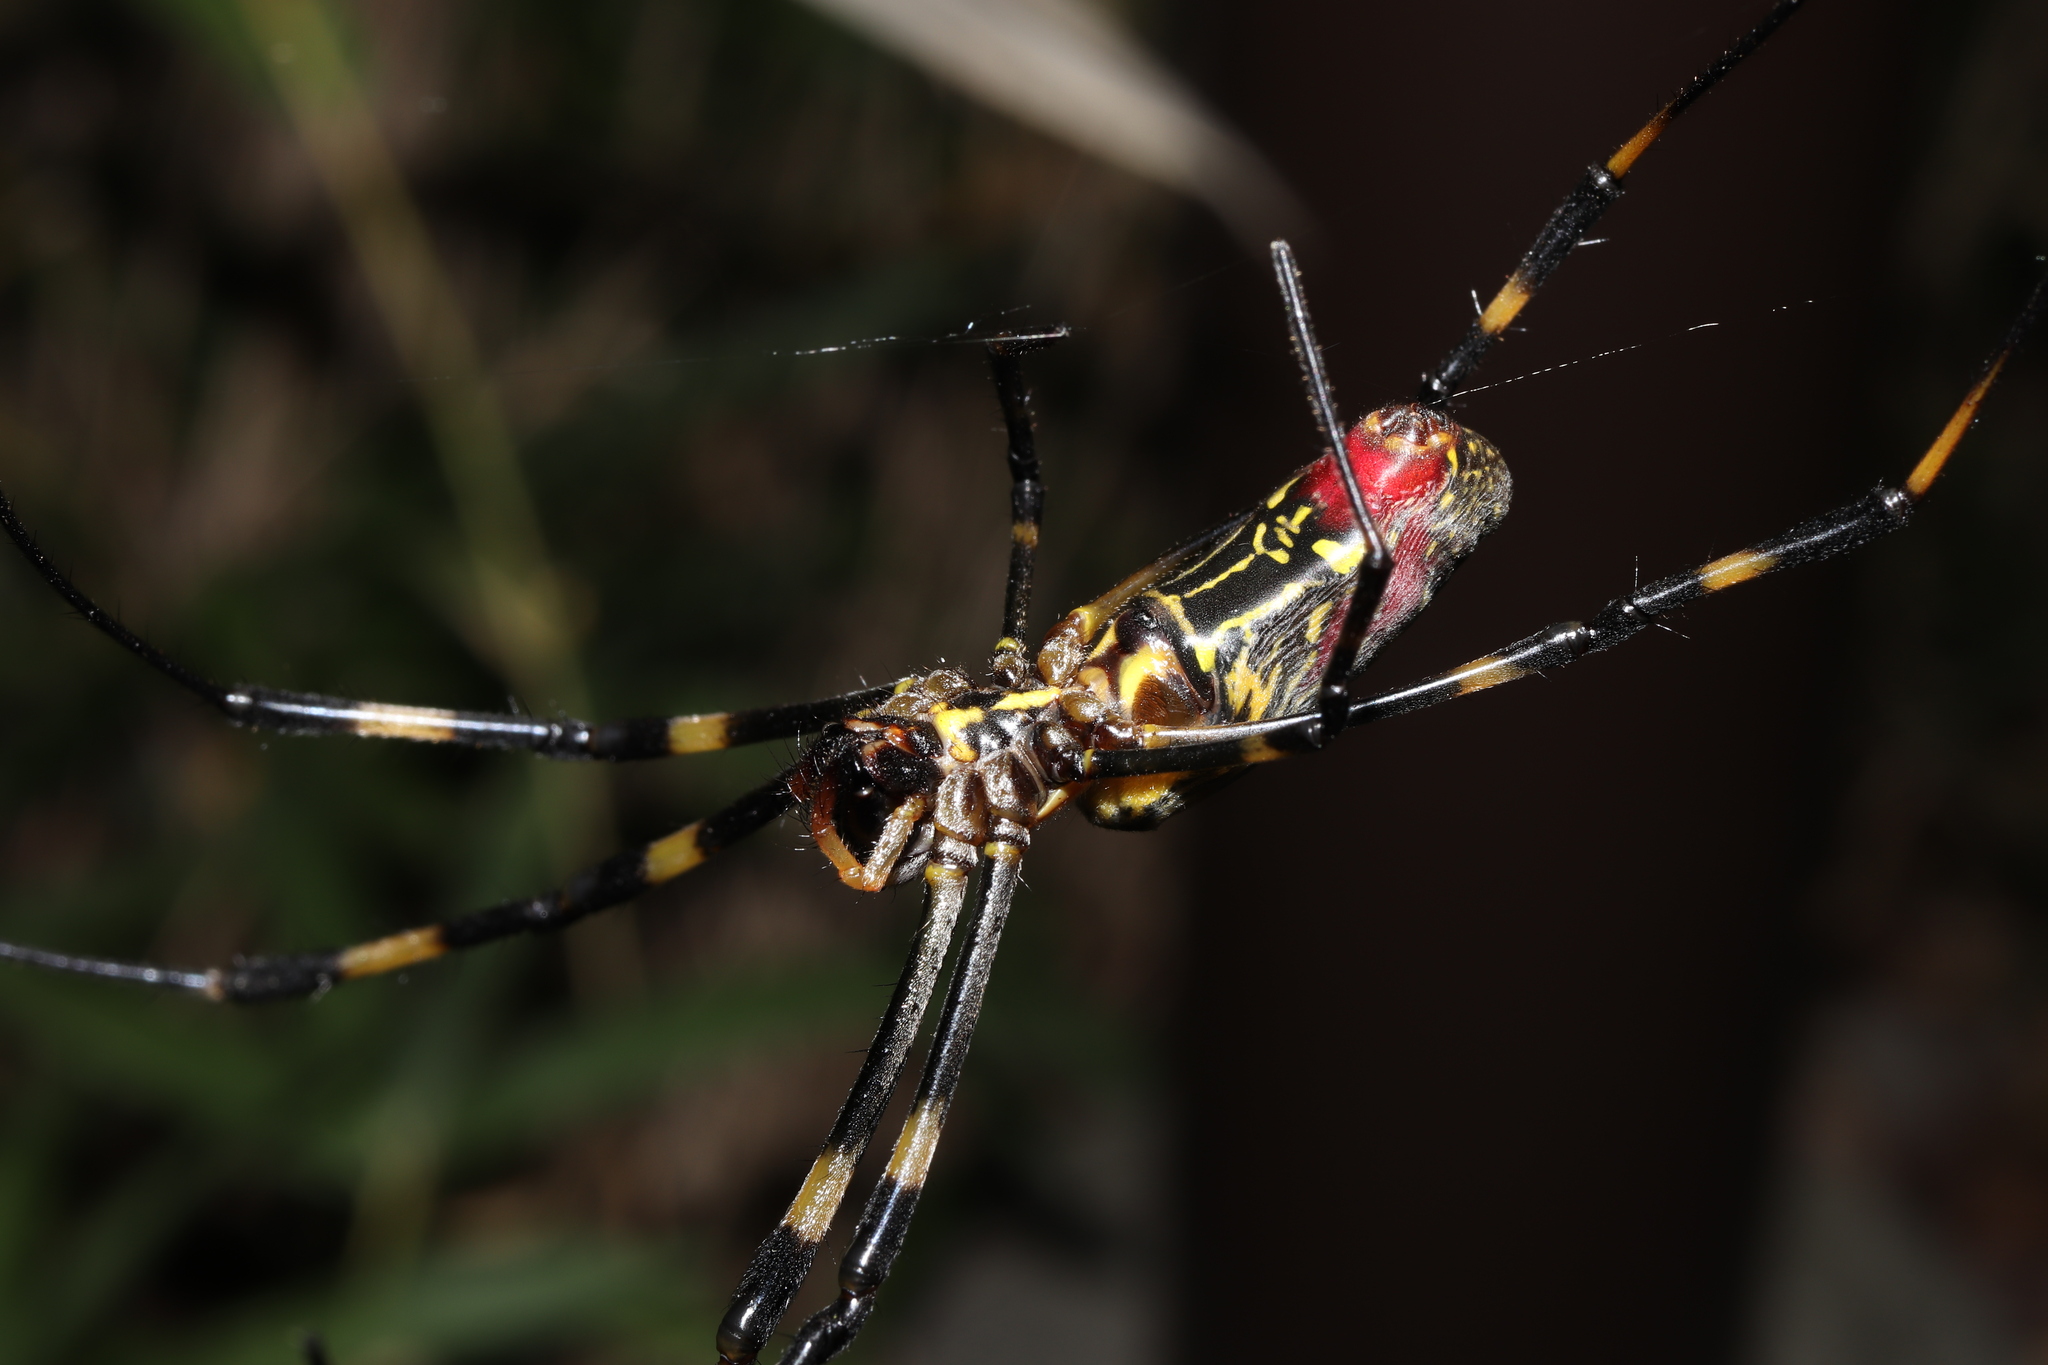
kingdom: Animalia
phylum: Arthropoda
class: Arachnida
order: Araneae
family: Araneidae
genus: Trichonephila
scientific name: Trichonephila clavata
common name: Jorō spider
